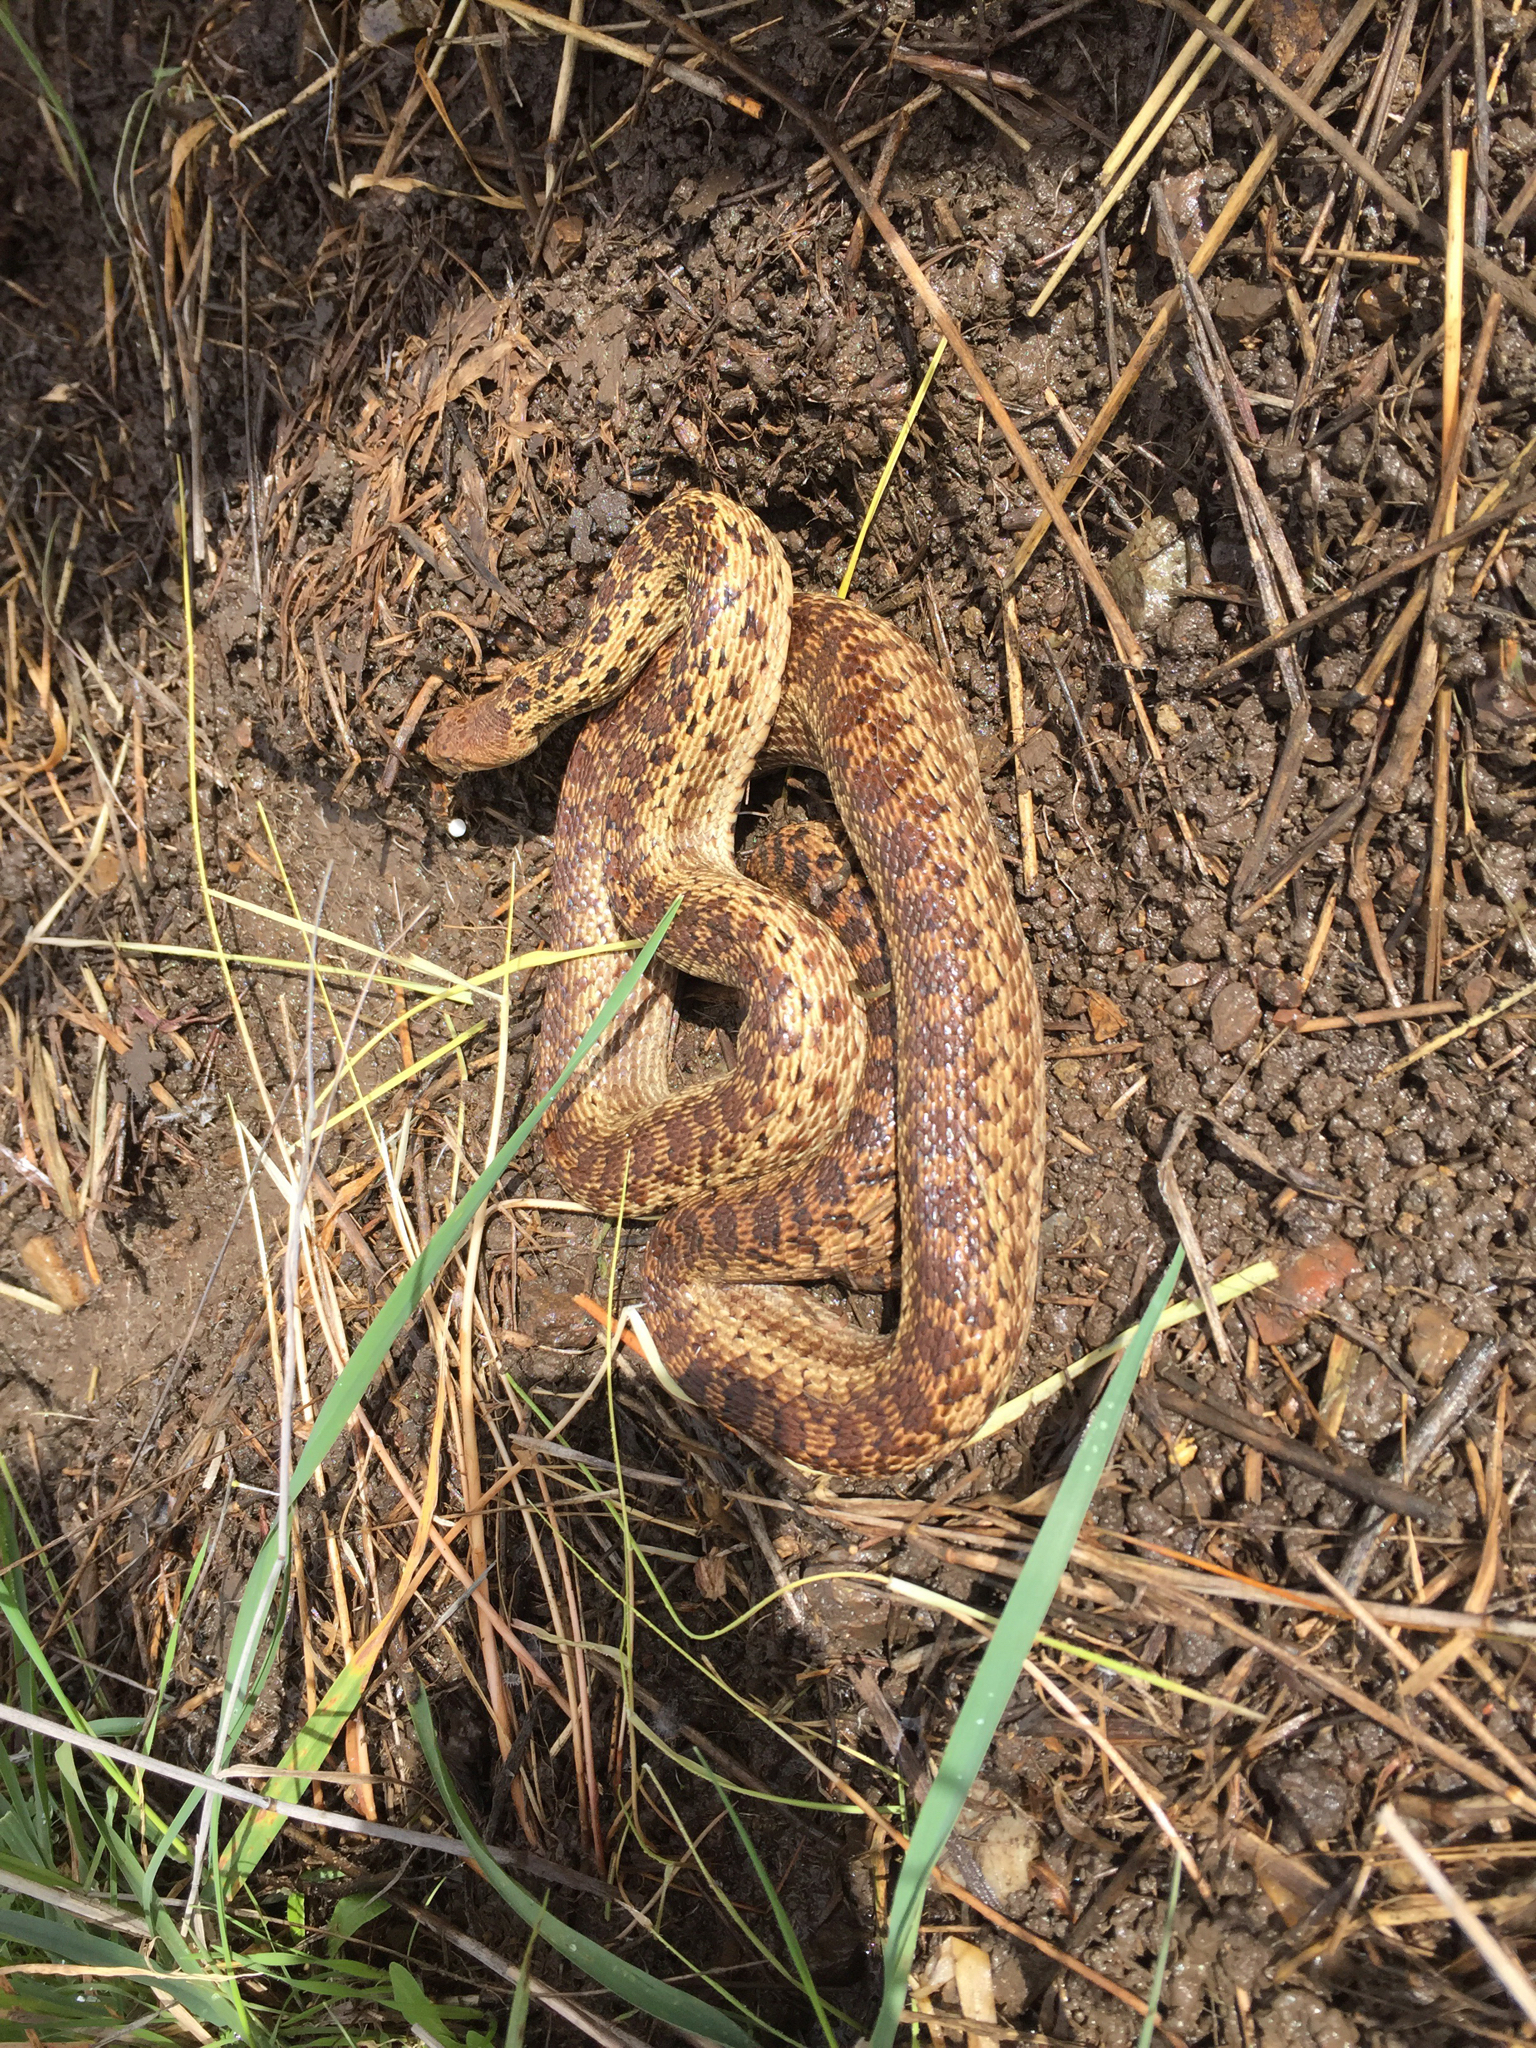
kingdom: Animalia
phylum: Chordata
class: Squamata
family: Colubridae
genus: Pituophis
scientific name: Pituophis catenifer
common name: Gopher snake
